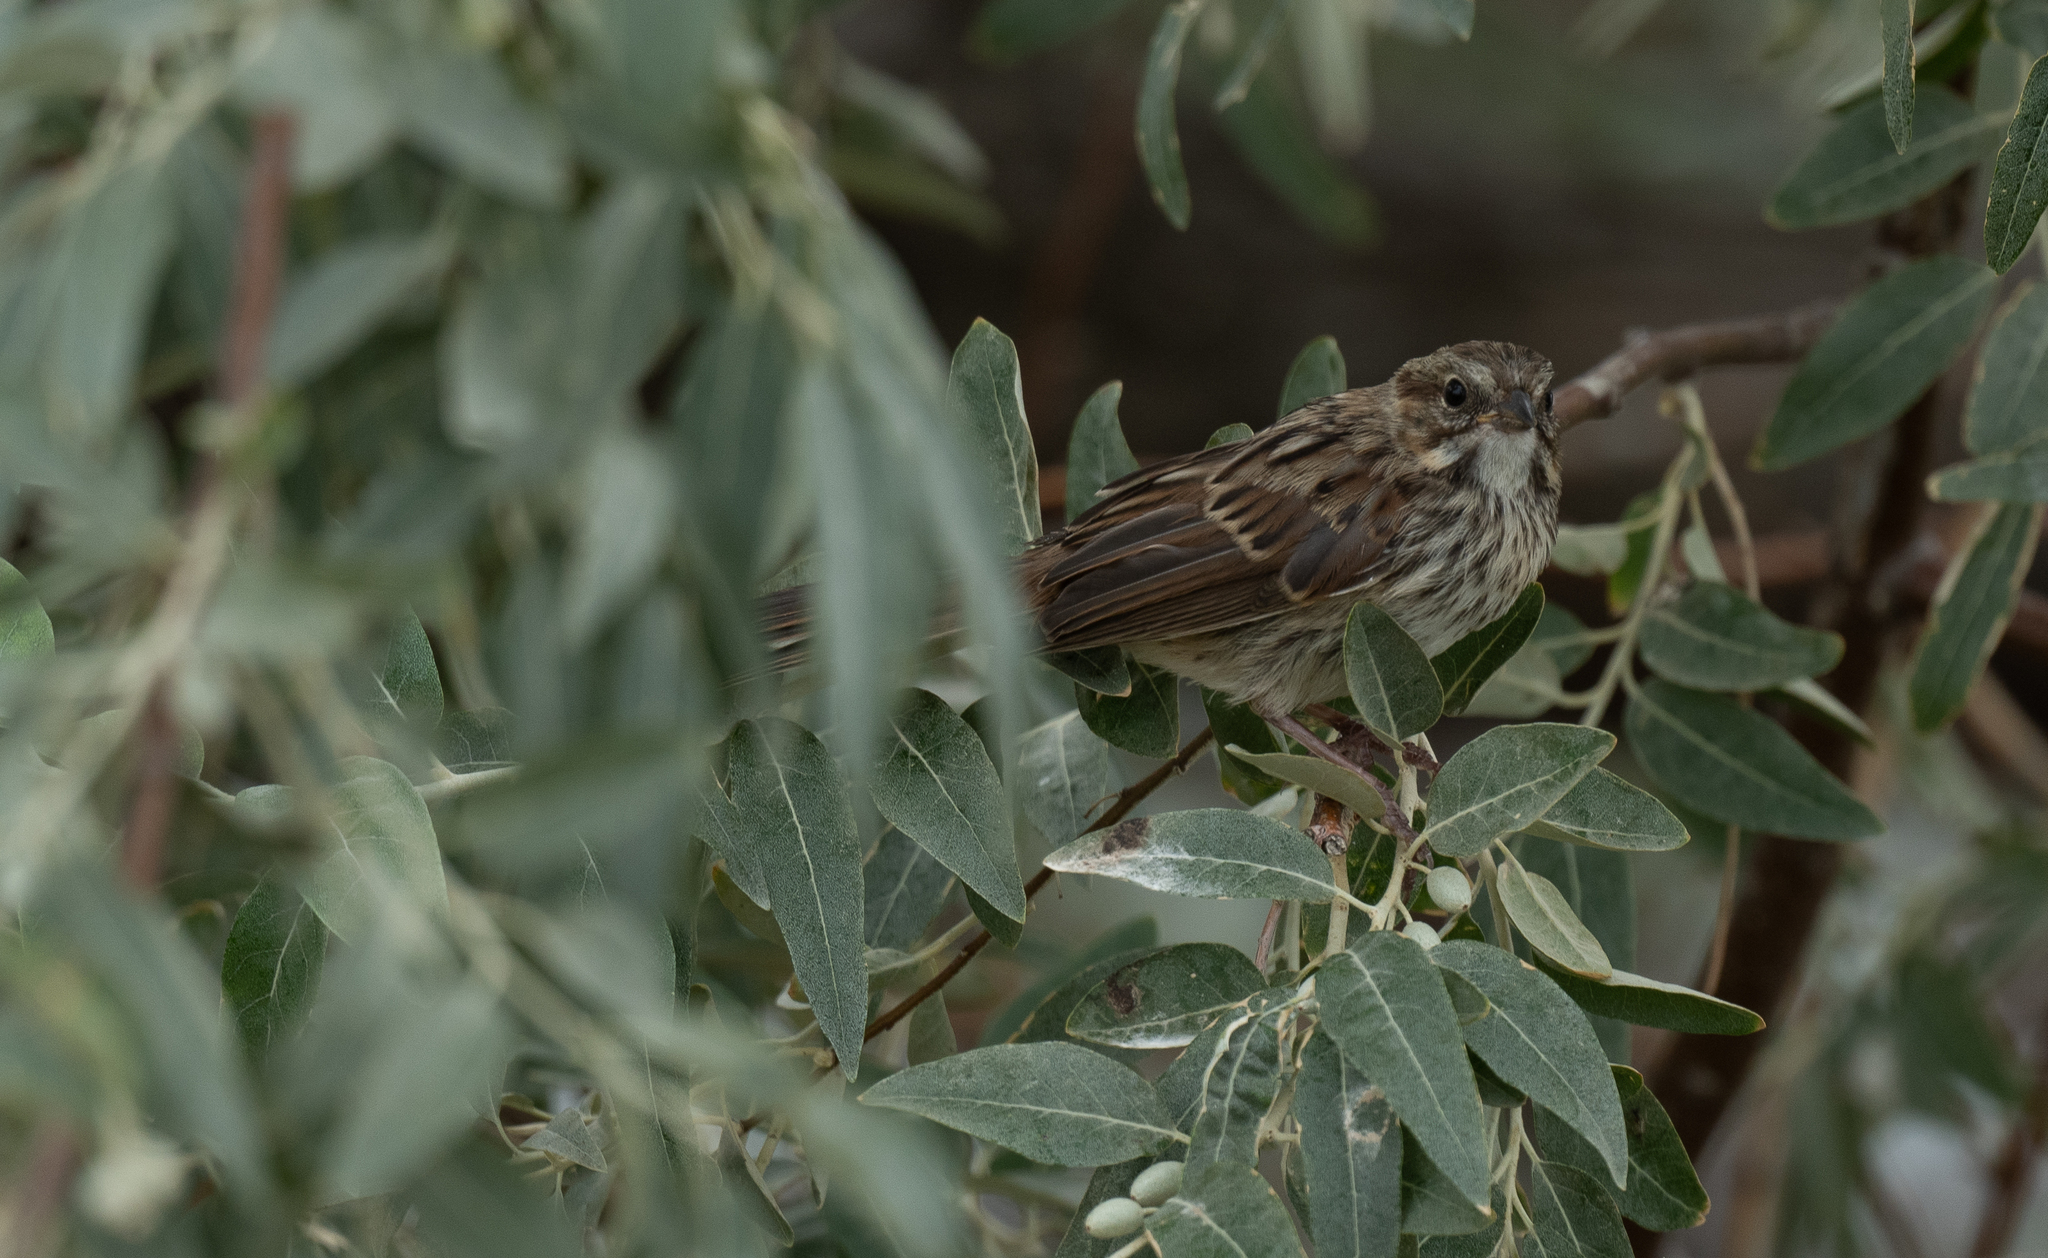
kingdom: Animalia
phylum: Chordata
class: Aves
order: Passeriformes
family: Passerellidae
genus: Melospiza
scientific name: Melospiza melodia
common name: Song sparrow
